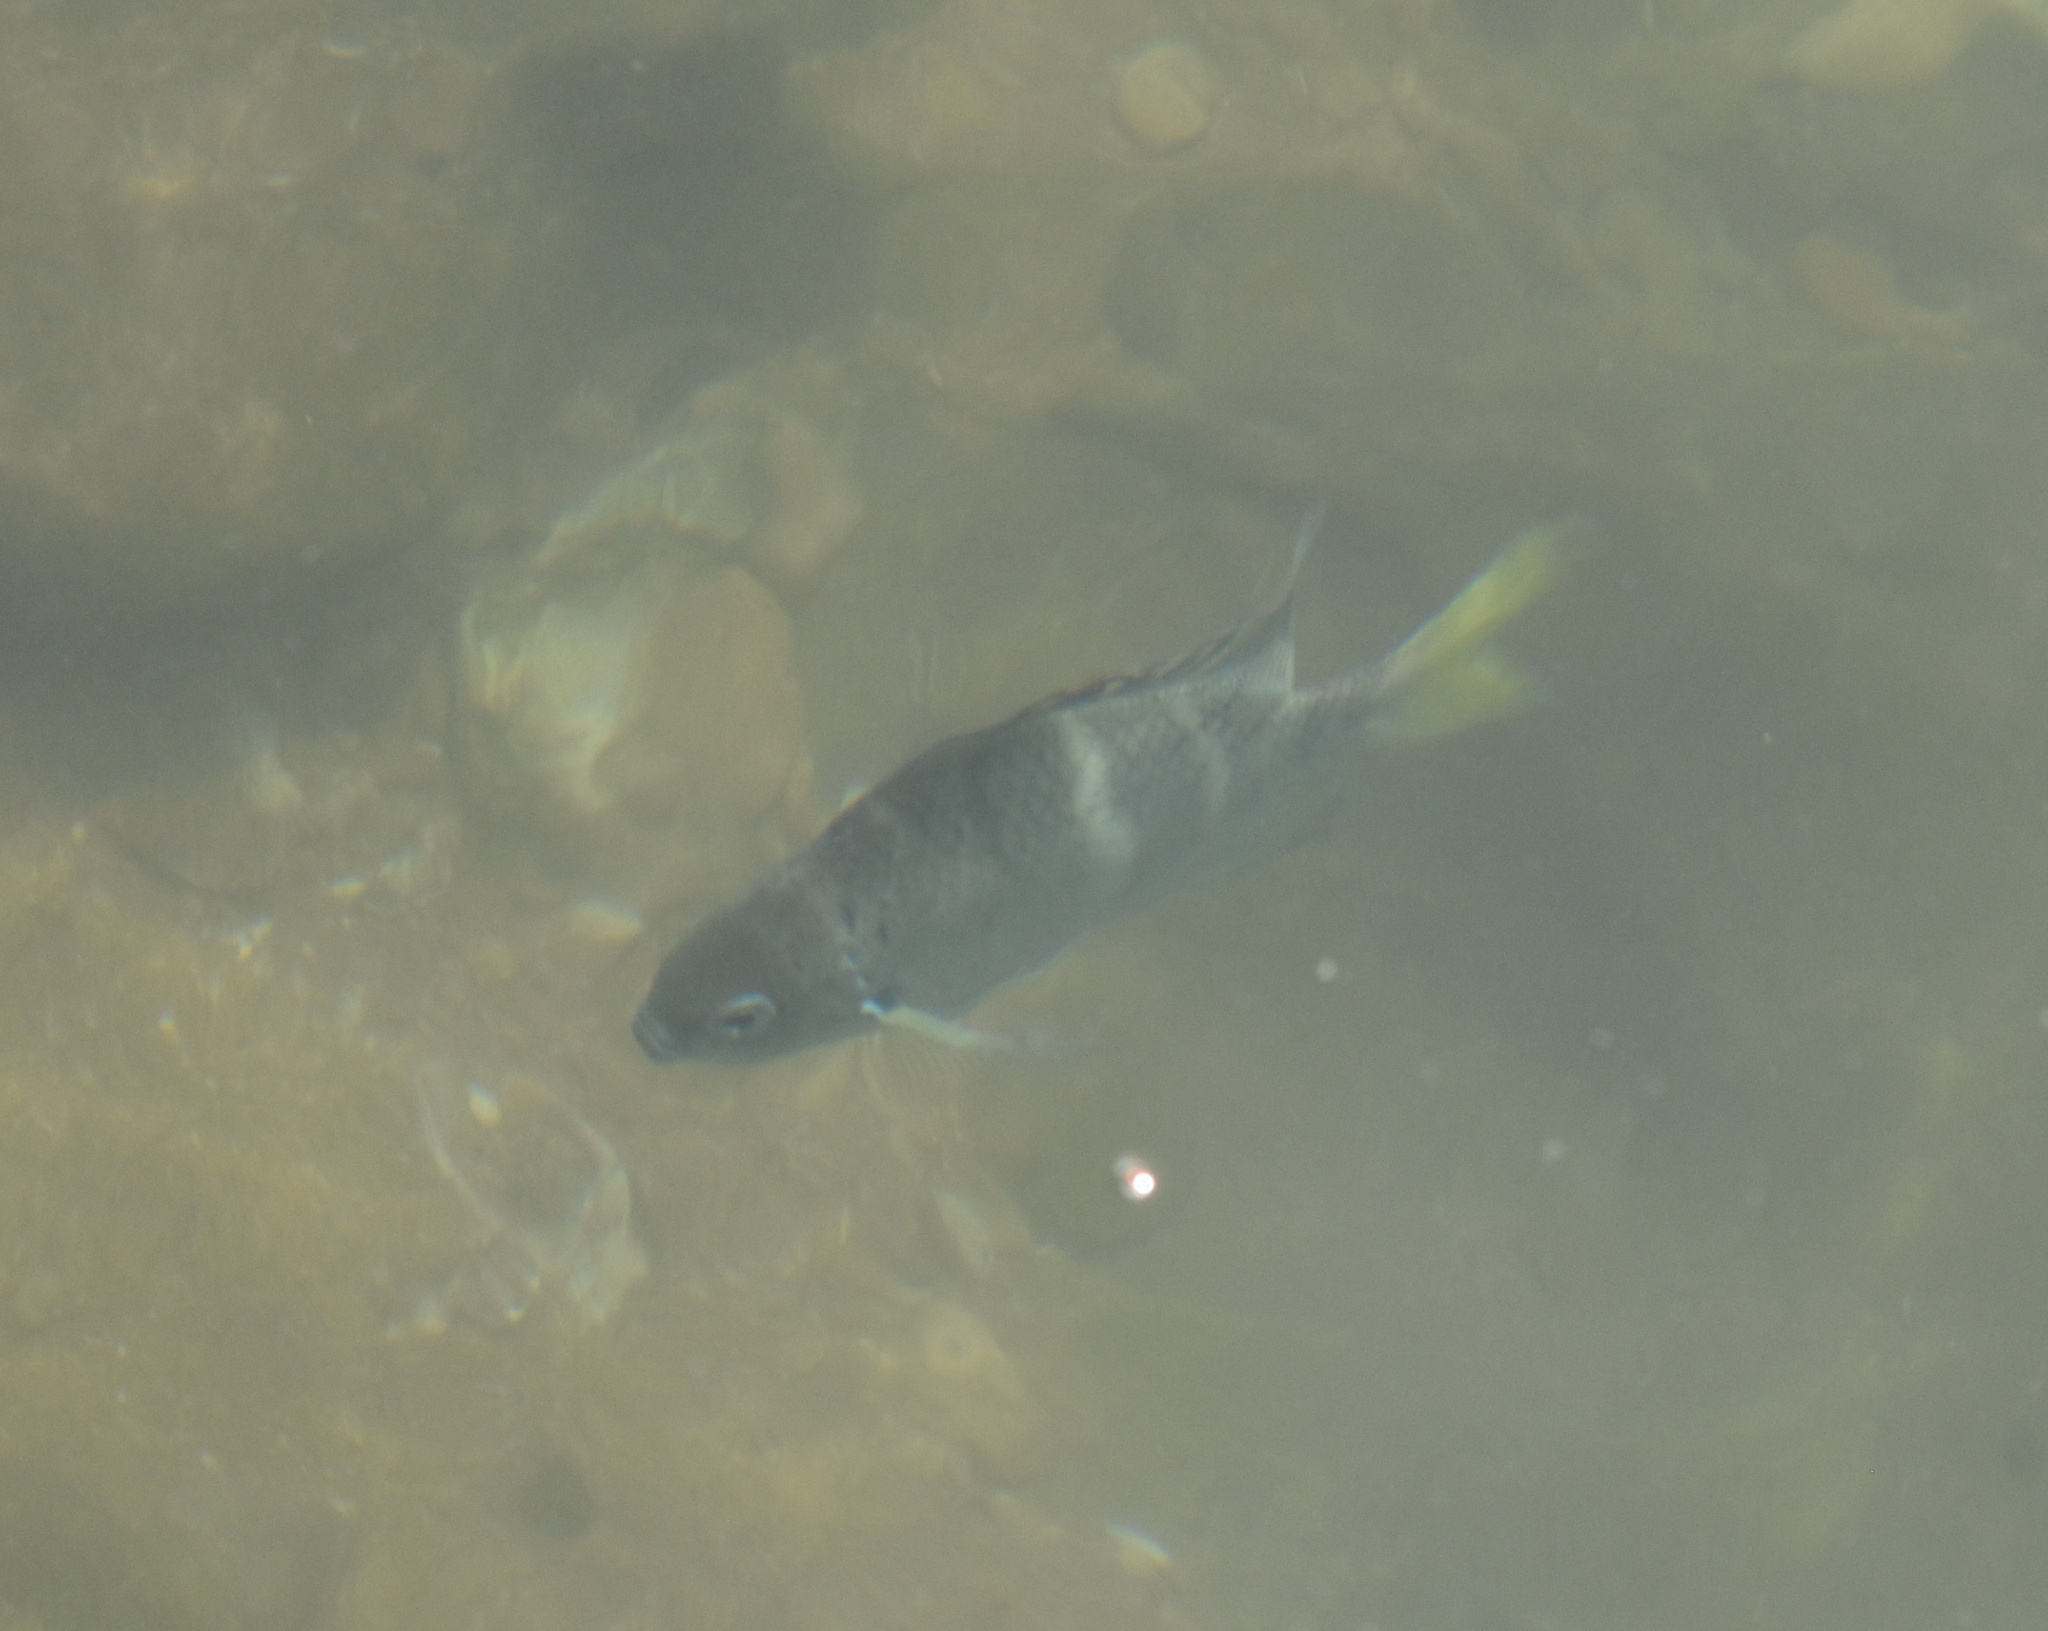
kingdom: Animalia
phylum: Chordata
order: Perciformes
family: Pomacentridae
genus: Abudefduf
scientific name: Abudefduf notatus
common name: Yellow-tail sergeant
